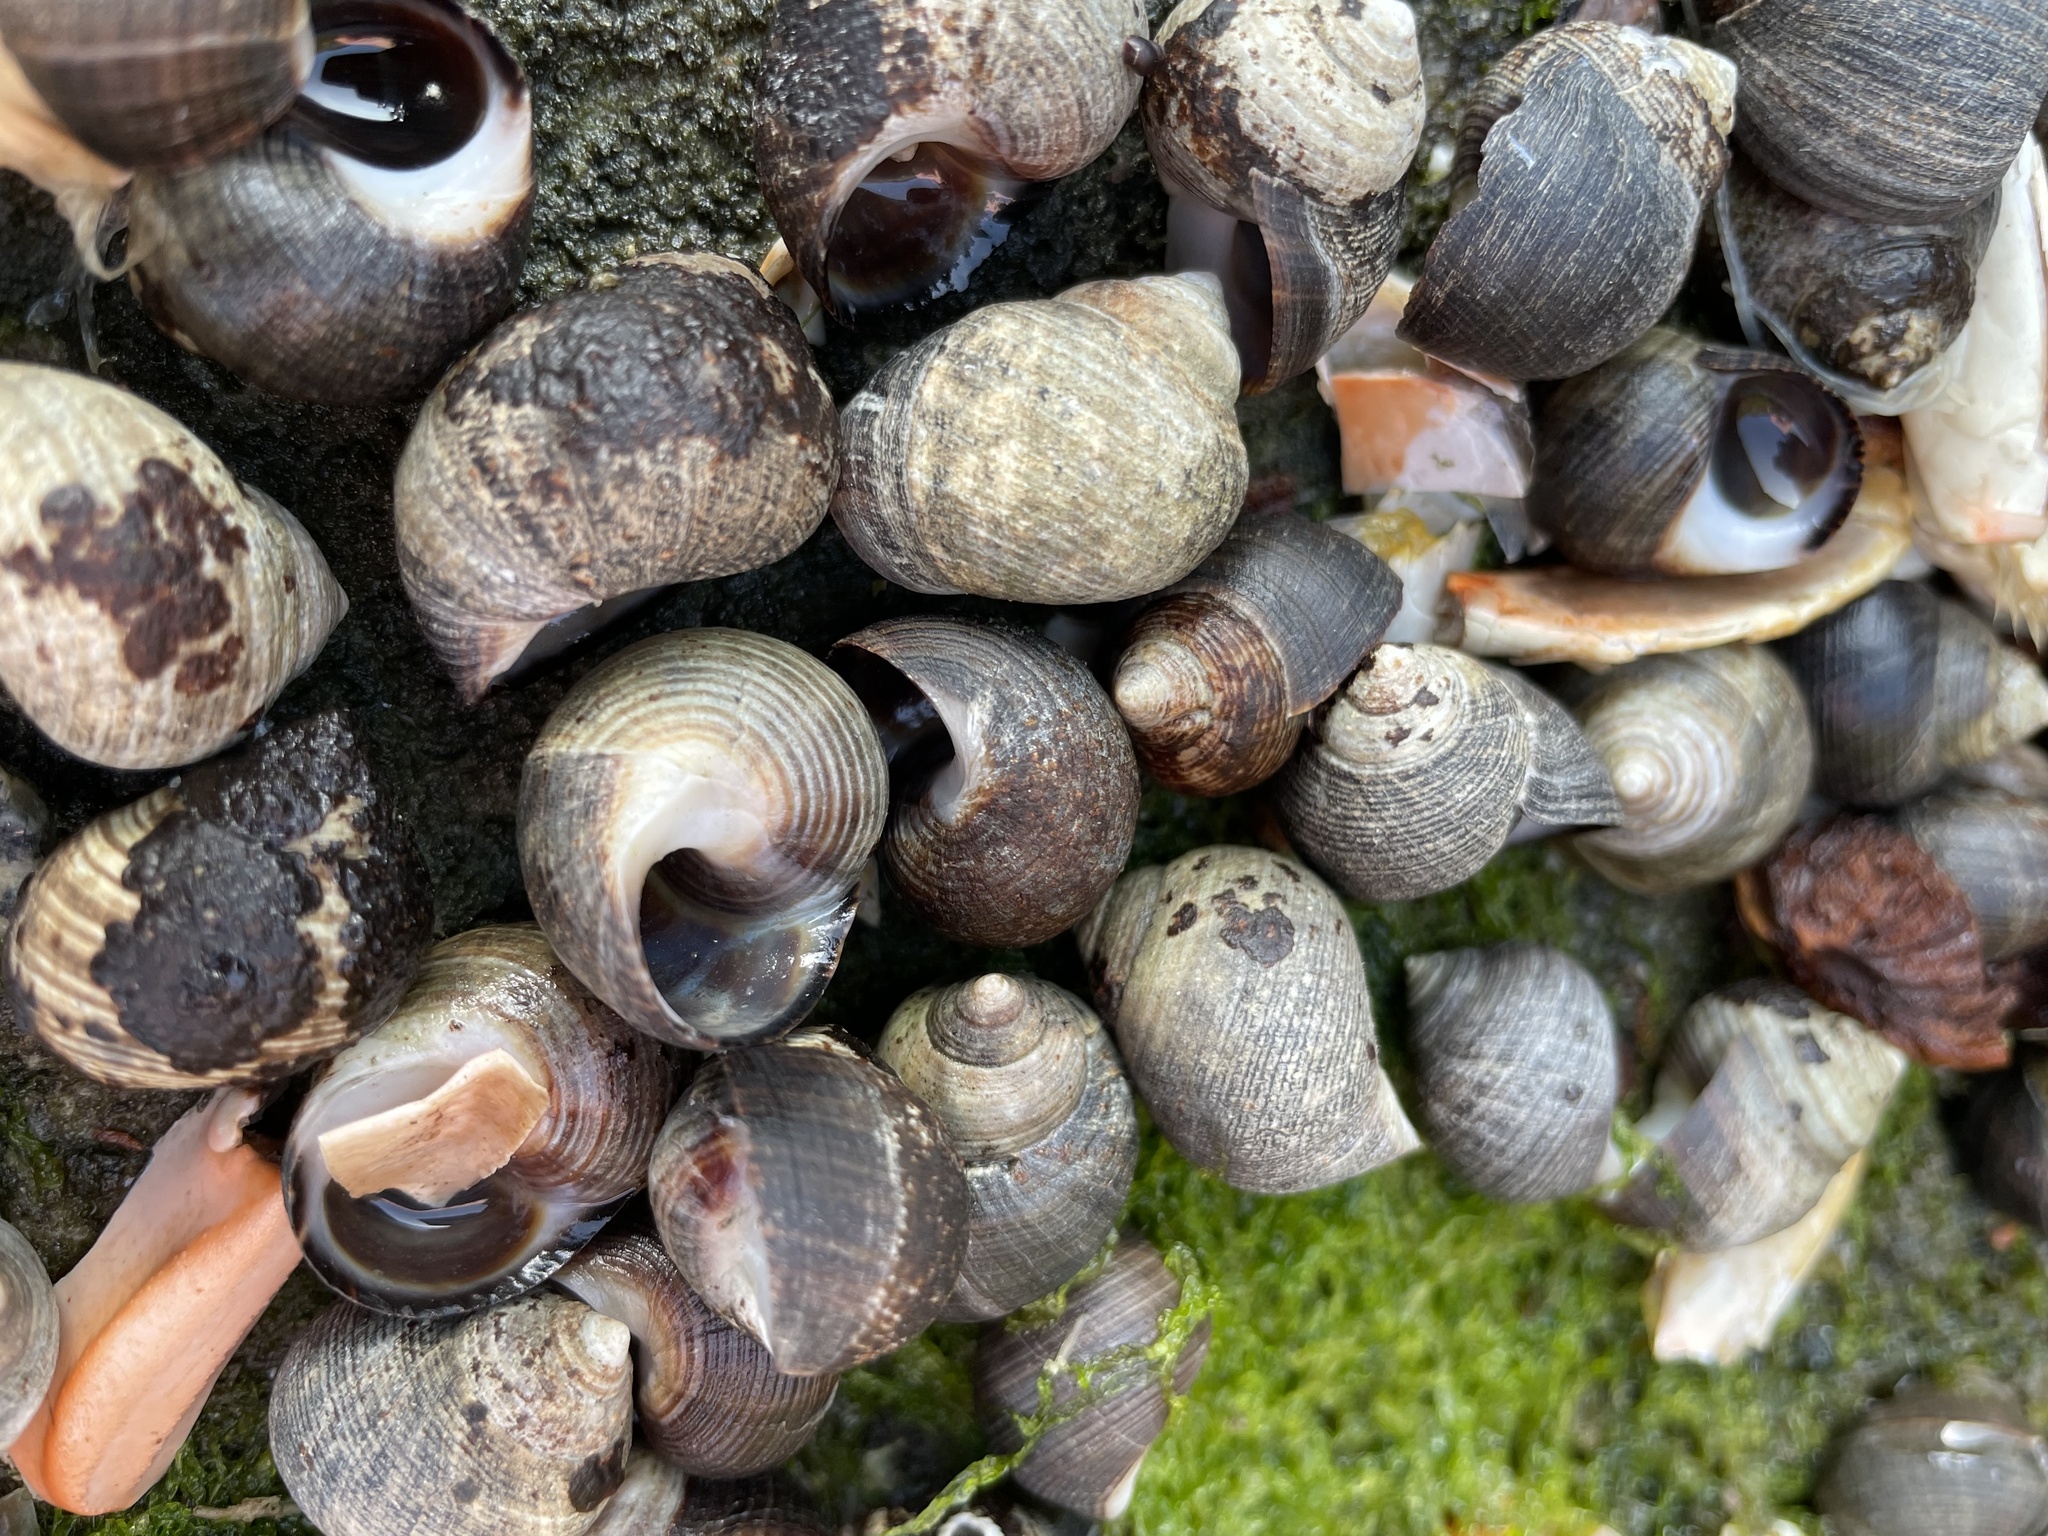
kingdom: Animalia
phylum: Mollusca
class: Gastropoda
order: Littorinimorpha
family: Littorinidae
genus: Littorina
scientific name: Littorina littorea
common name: Common periwinkle
